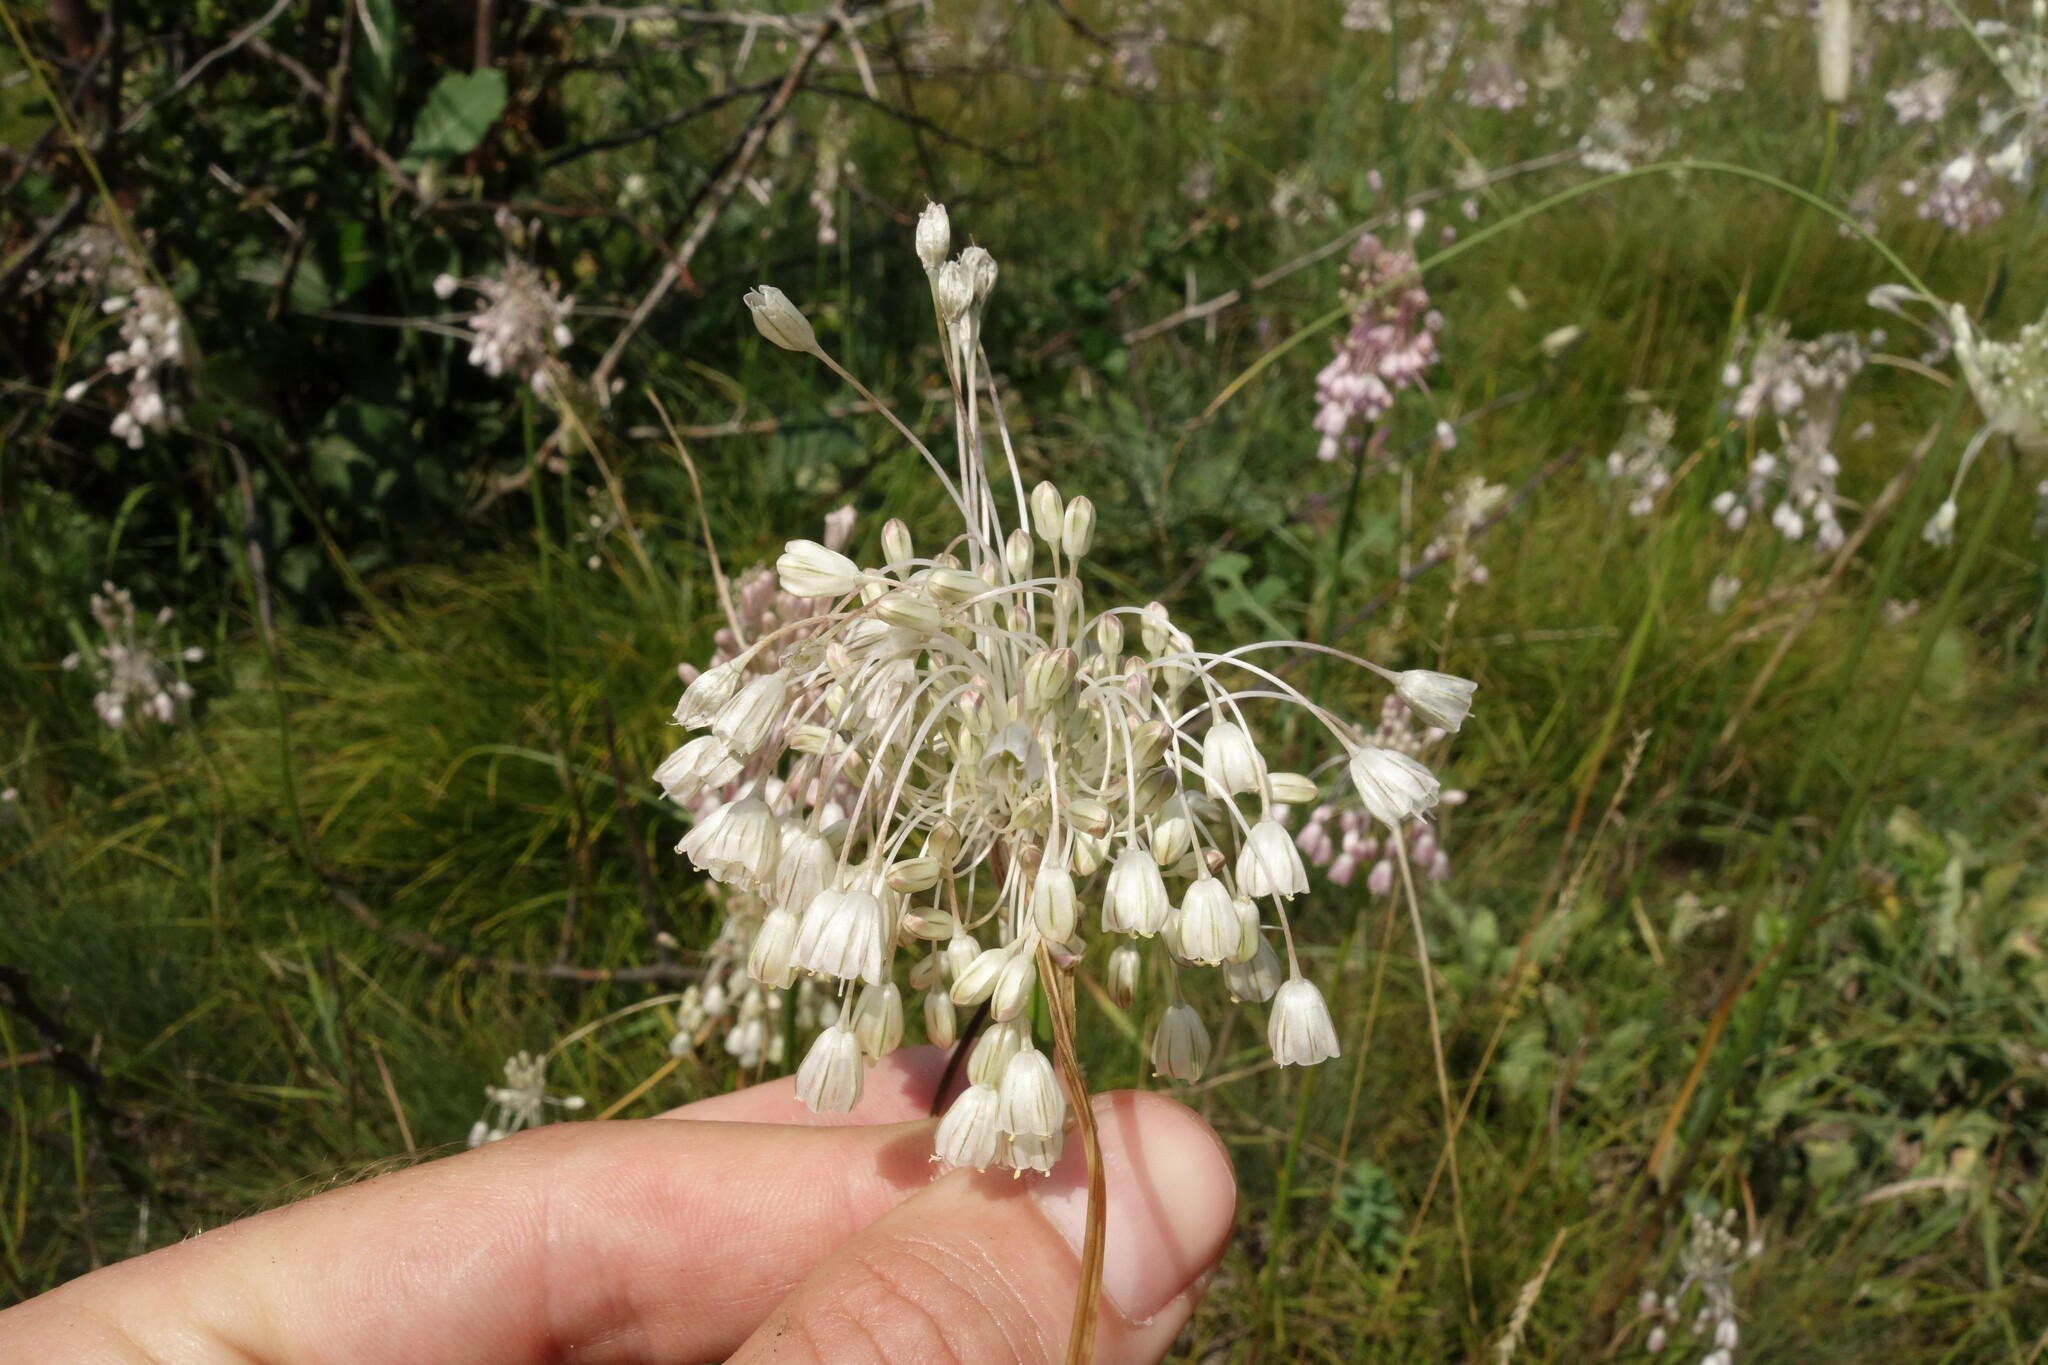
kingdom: Plantae
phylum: Tracheophyta
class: Liliopsida
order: Asparagales
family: Amaryllidaceae
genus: Allium
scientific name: Allium paniculatum
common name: Pale garlic
